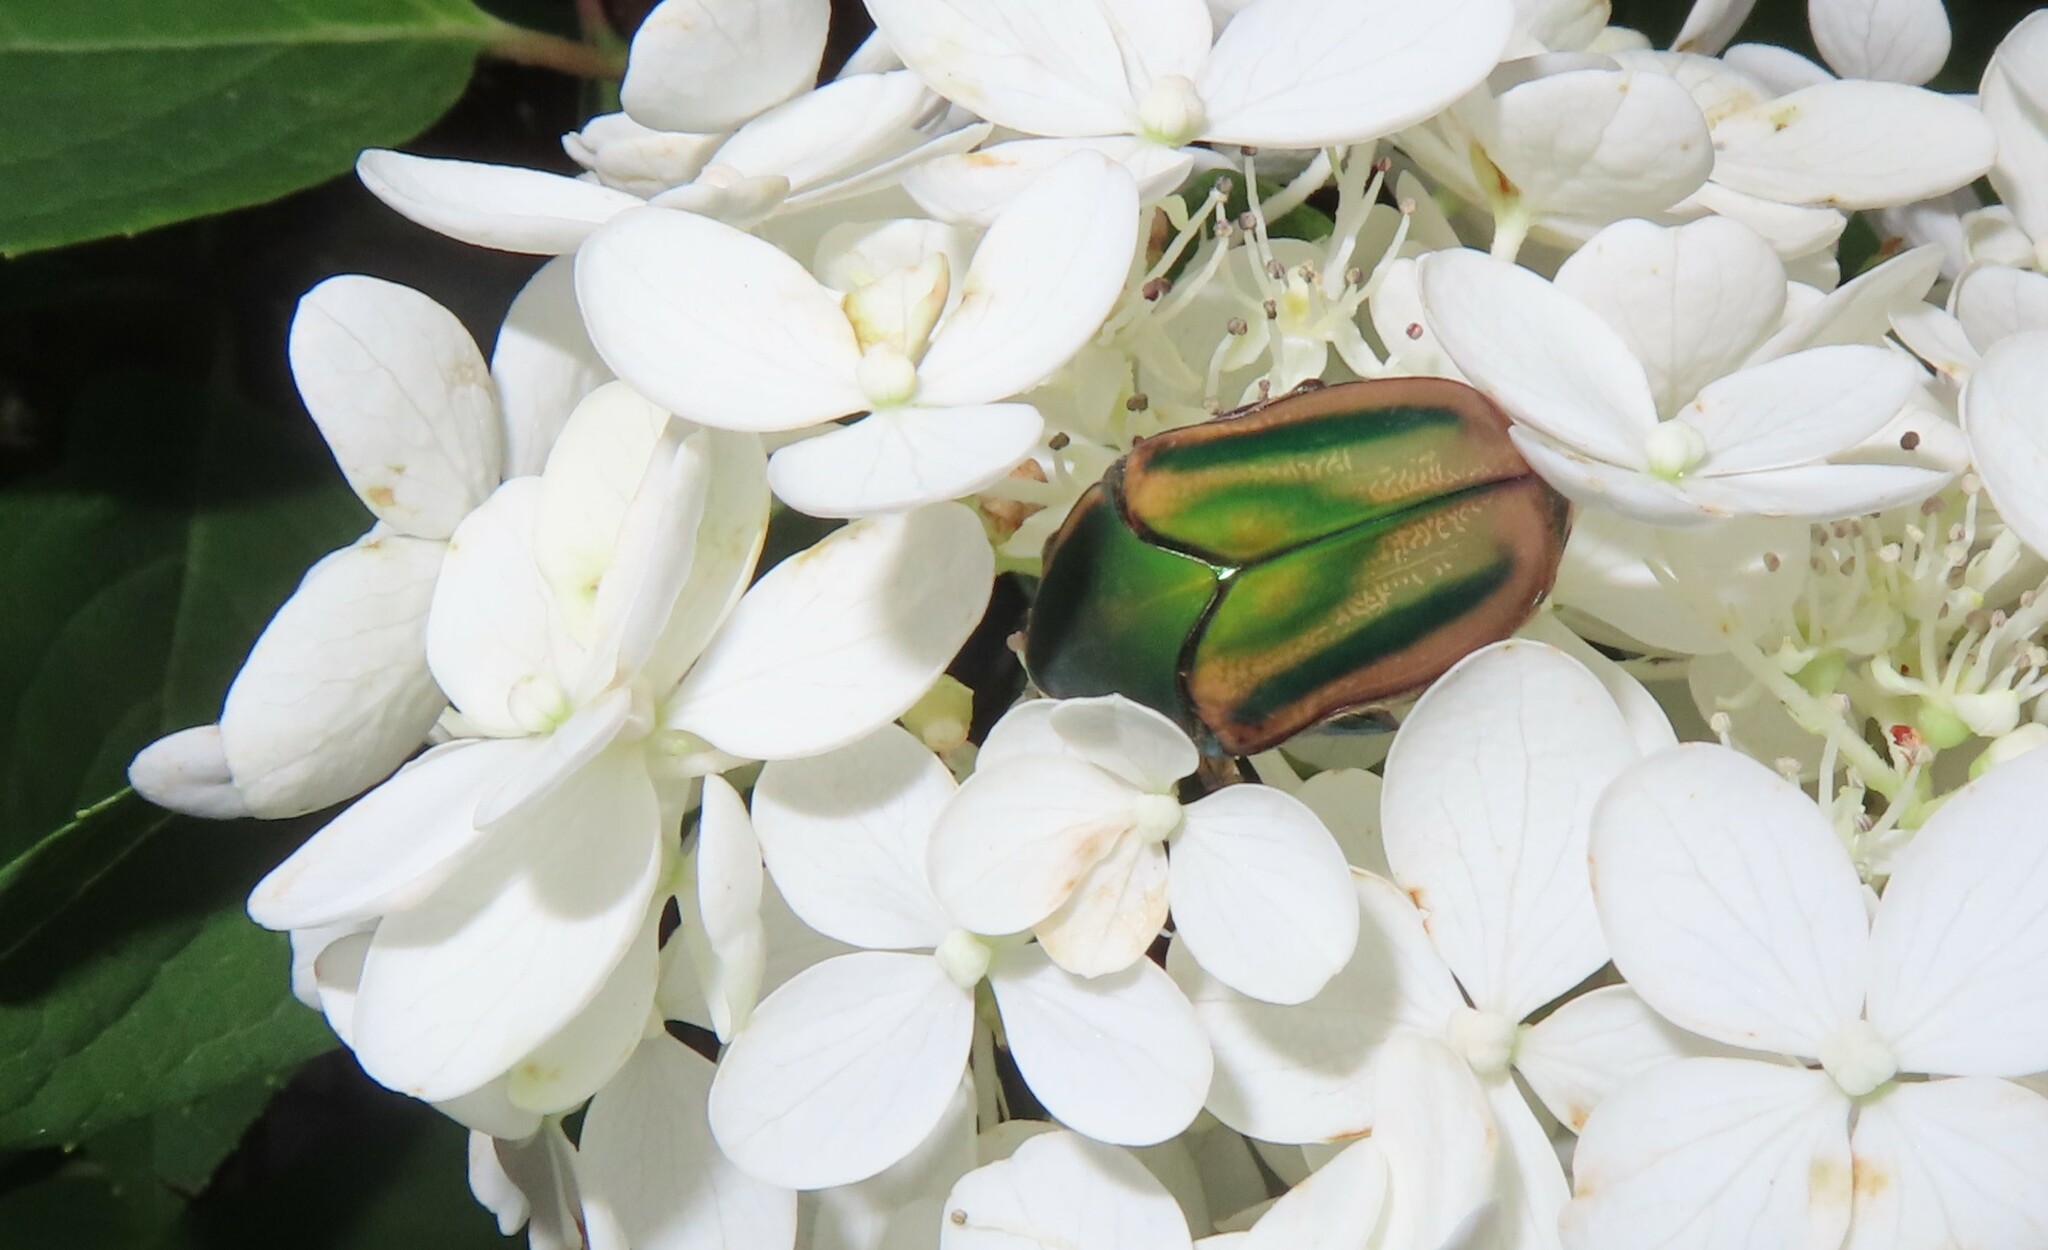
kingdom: Animalia
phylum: Arthropoda
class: Insecta
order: Coleoptera
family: Scarabaeidae
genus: Cotinis
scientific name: Cotinis nitida
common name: Common green june beetle
